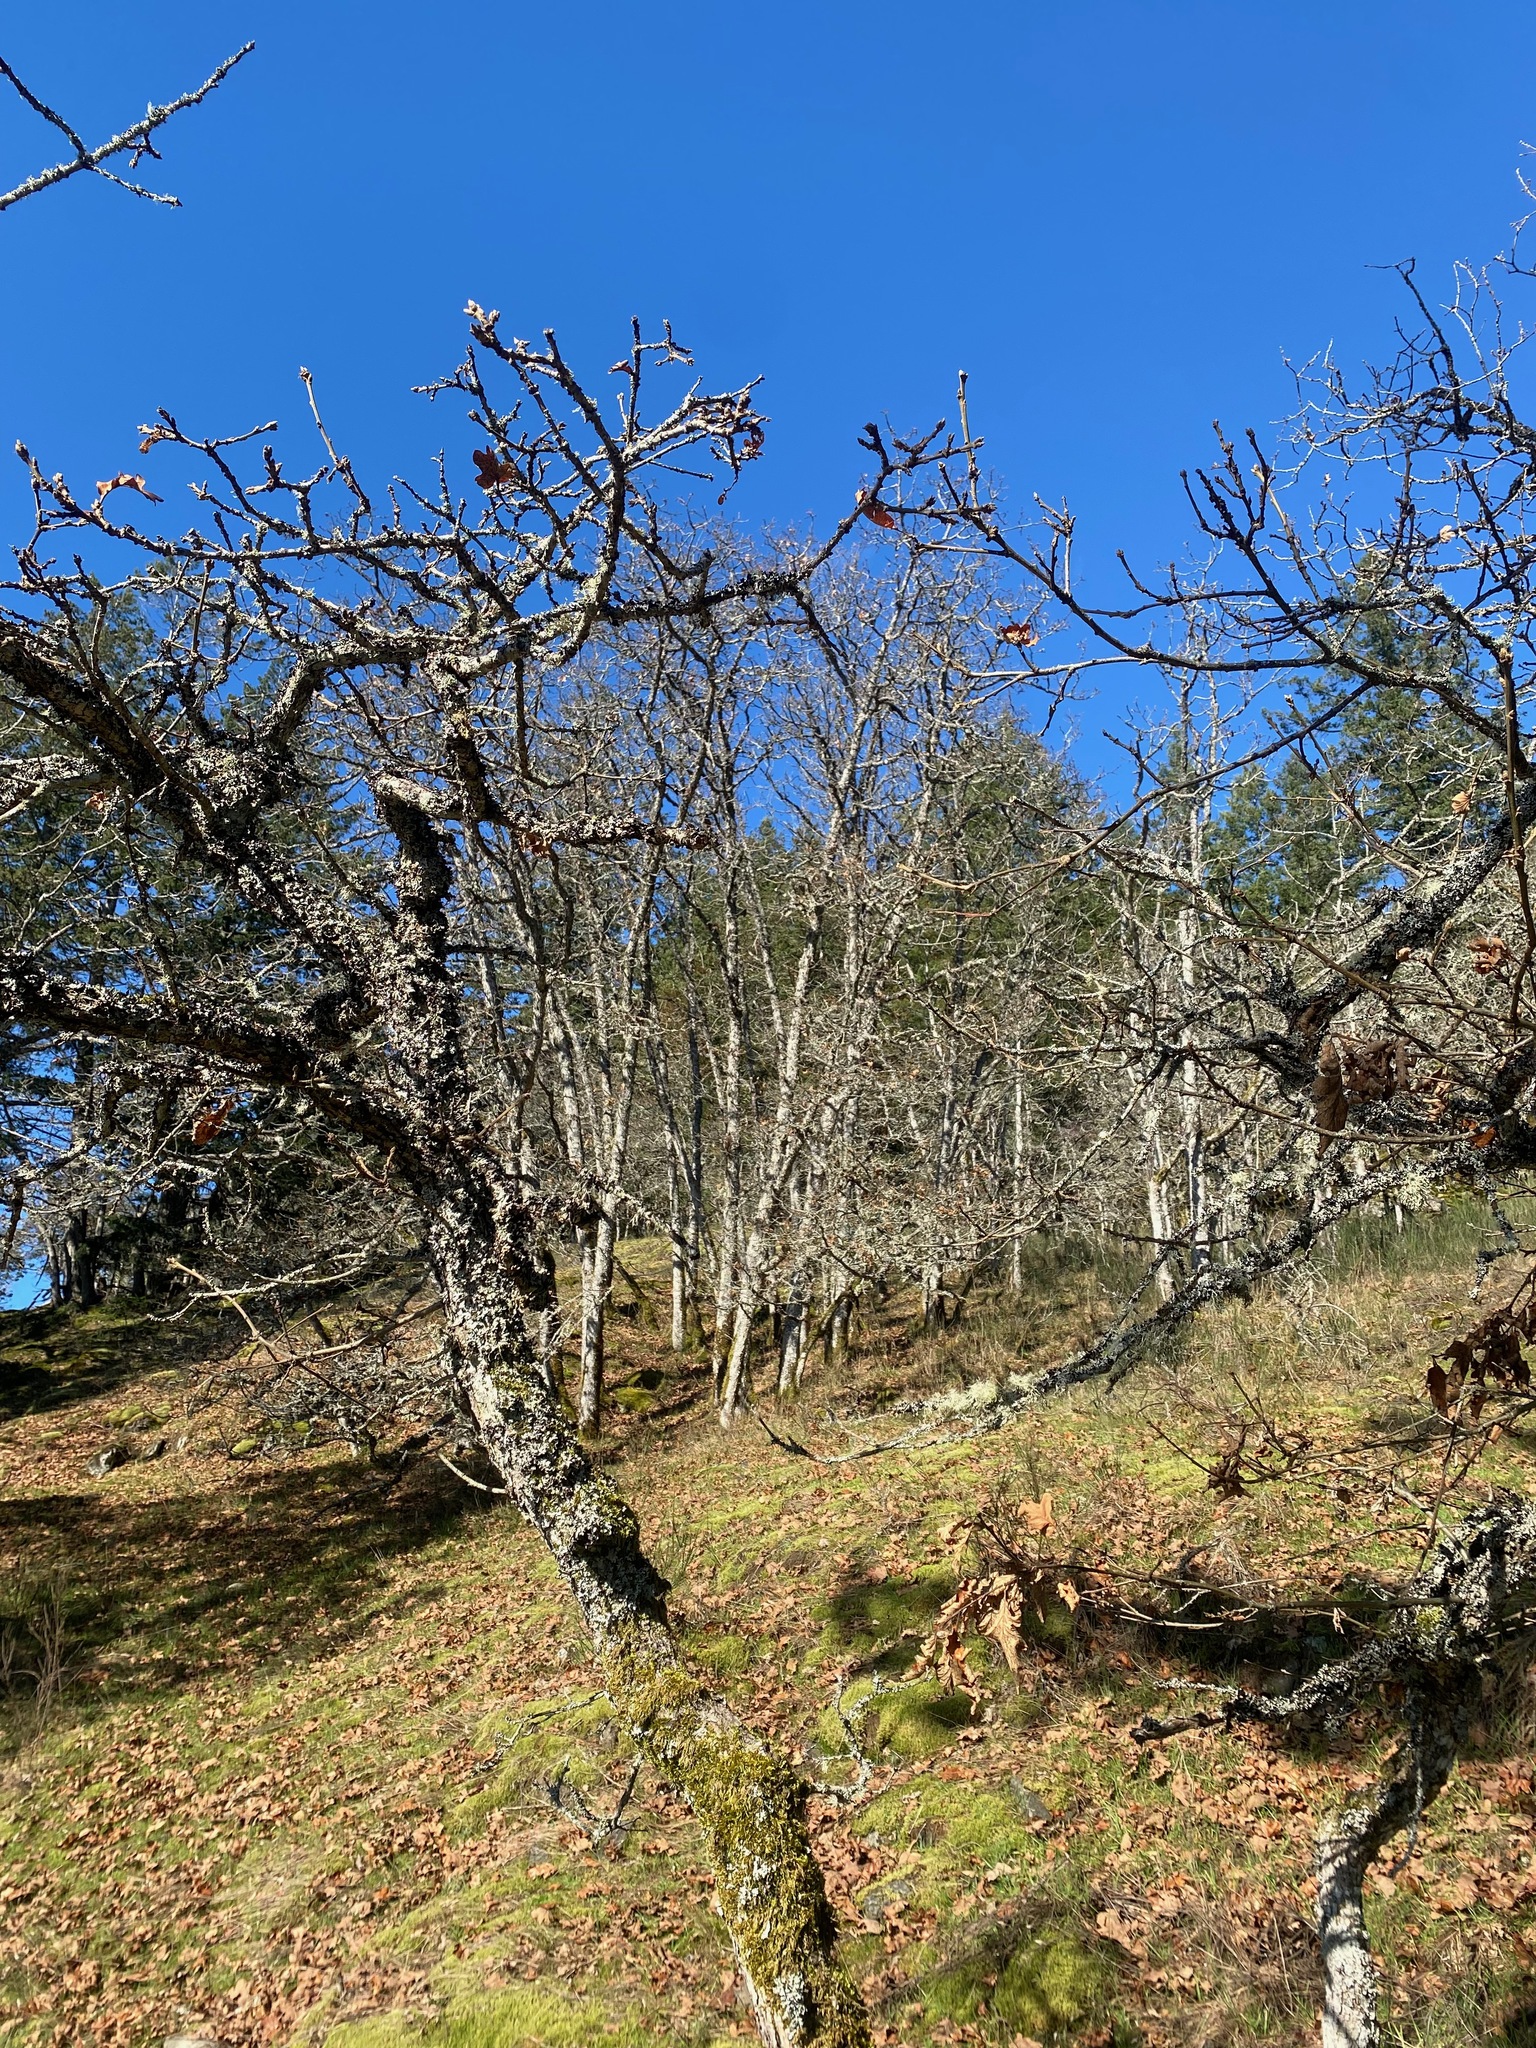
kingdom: Plantae
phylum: Tracheophyta
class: Magnoliopsida
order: Fagales
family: Fagaceae
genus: Quercus
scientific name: Quercus garryana
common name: Garry oak
